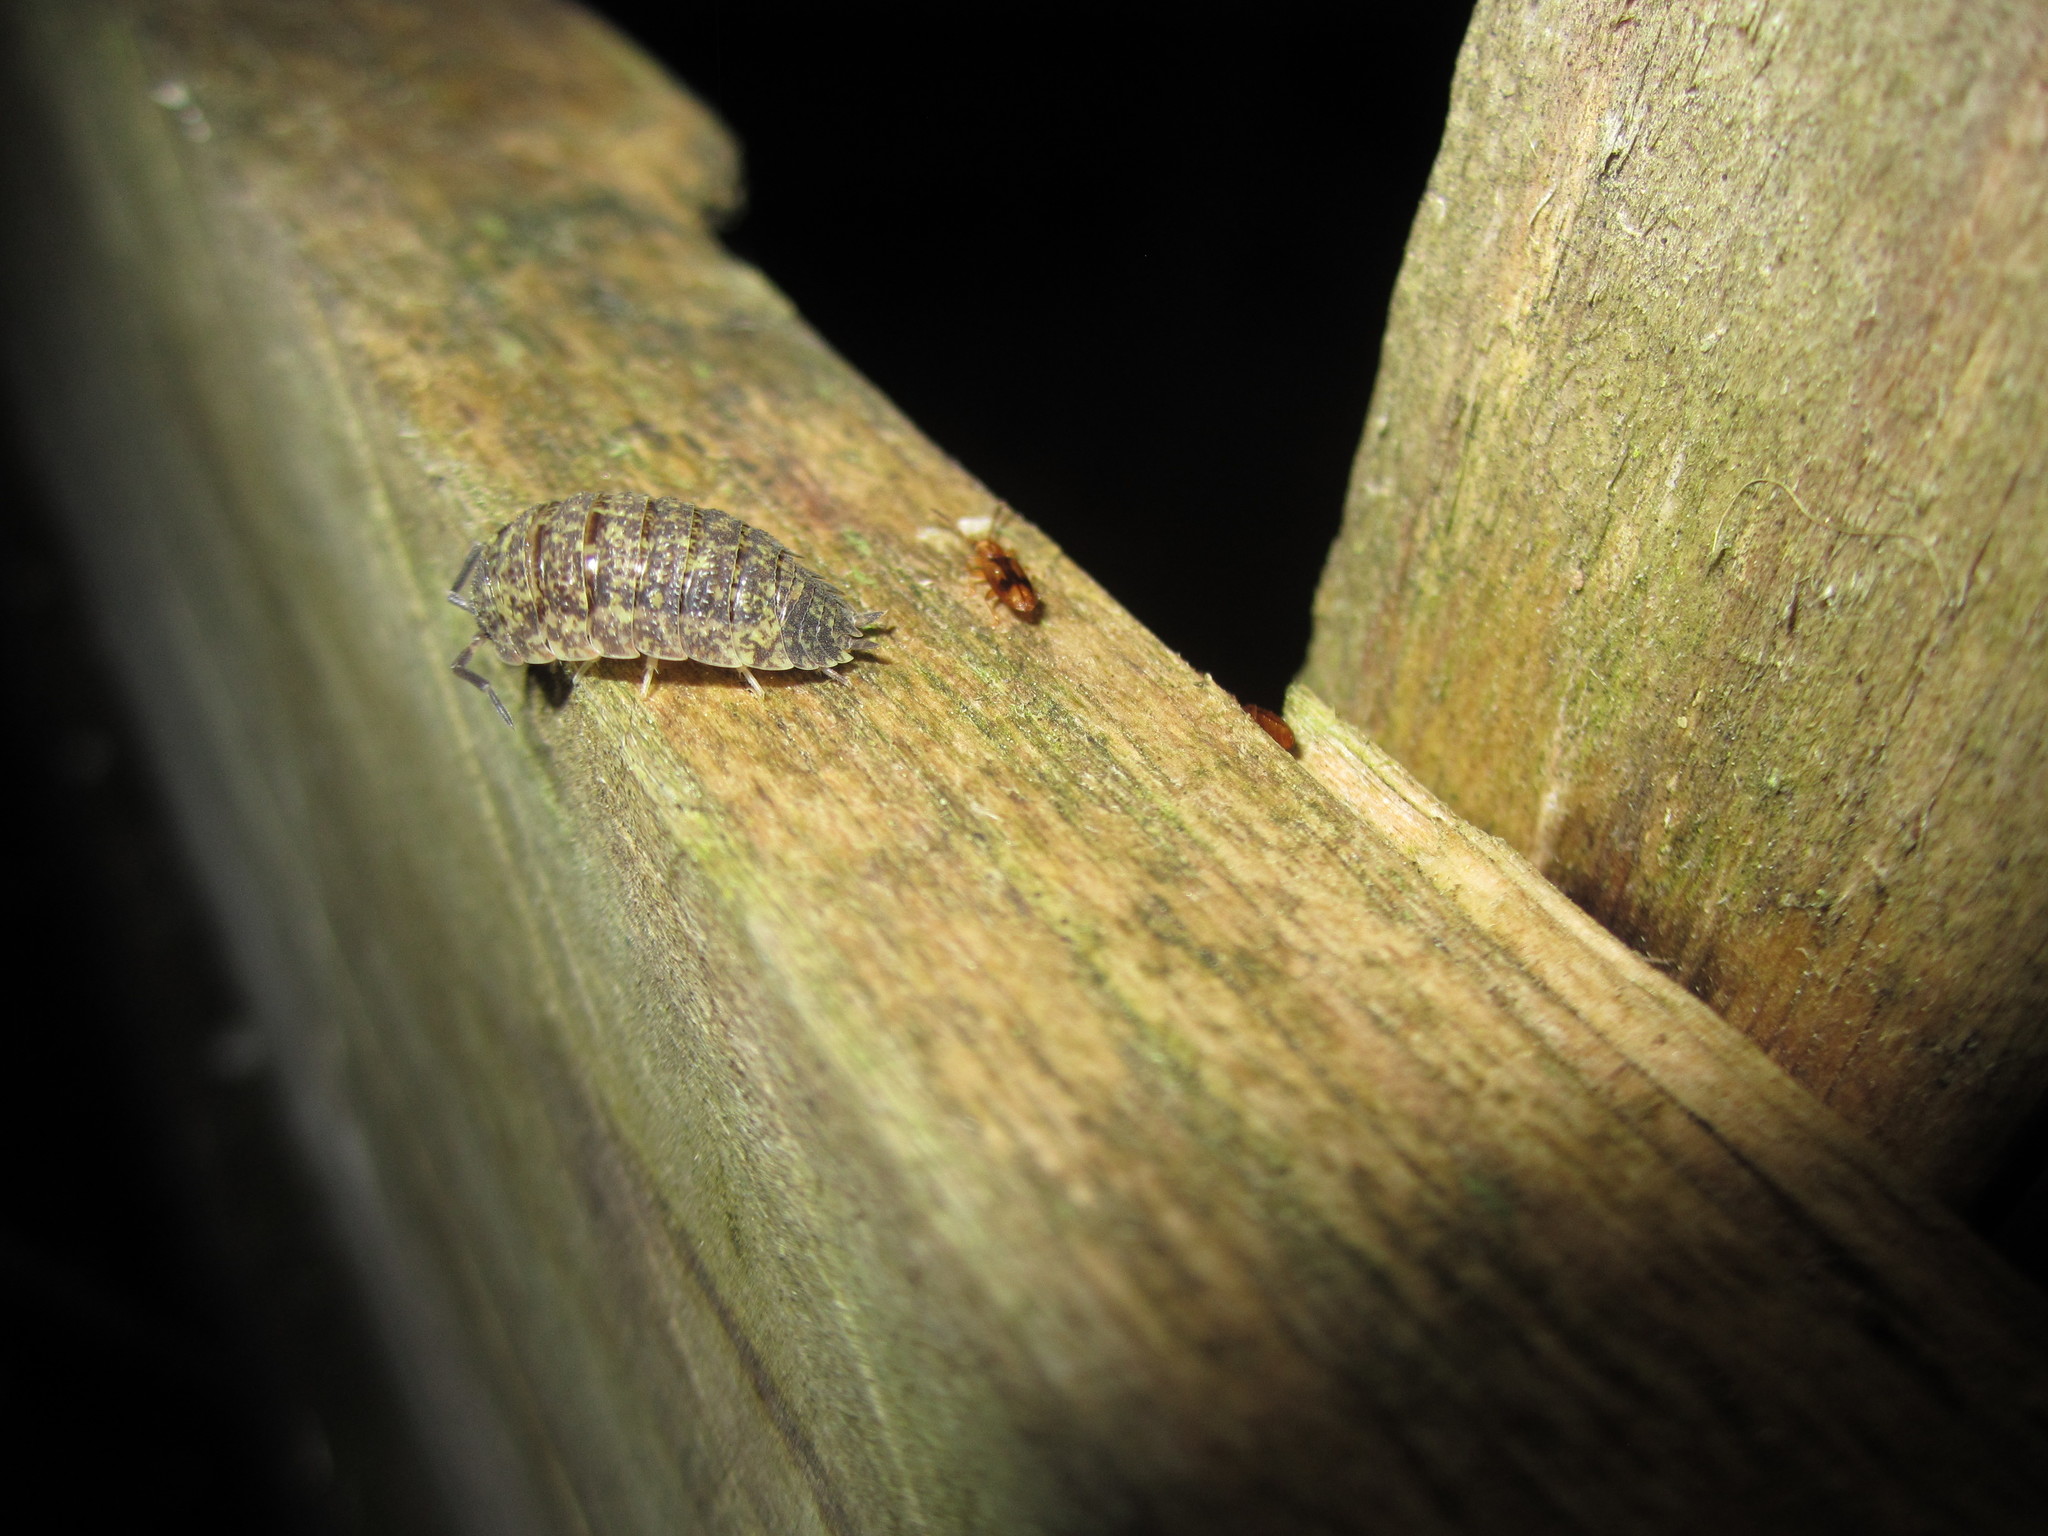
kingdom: Animalia
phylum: Arthropoda
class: Insecta
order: Coleoptera
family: Silvanidae
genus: Cryptamorpha
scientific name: Cryptamorpha desjardinsi
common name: Cryptamorpha
